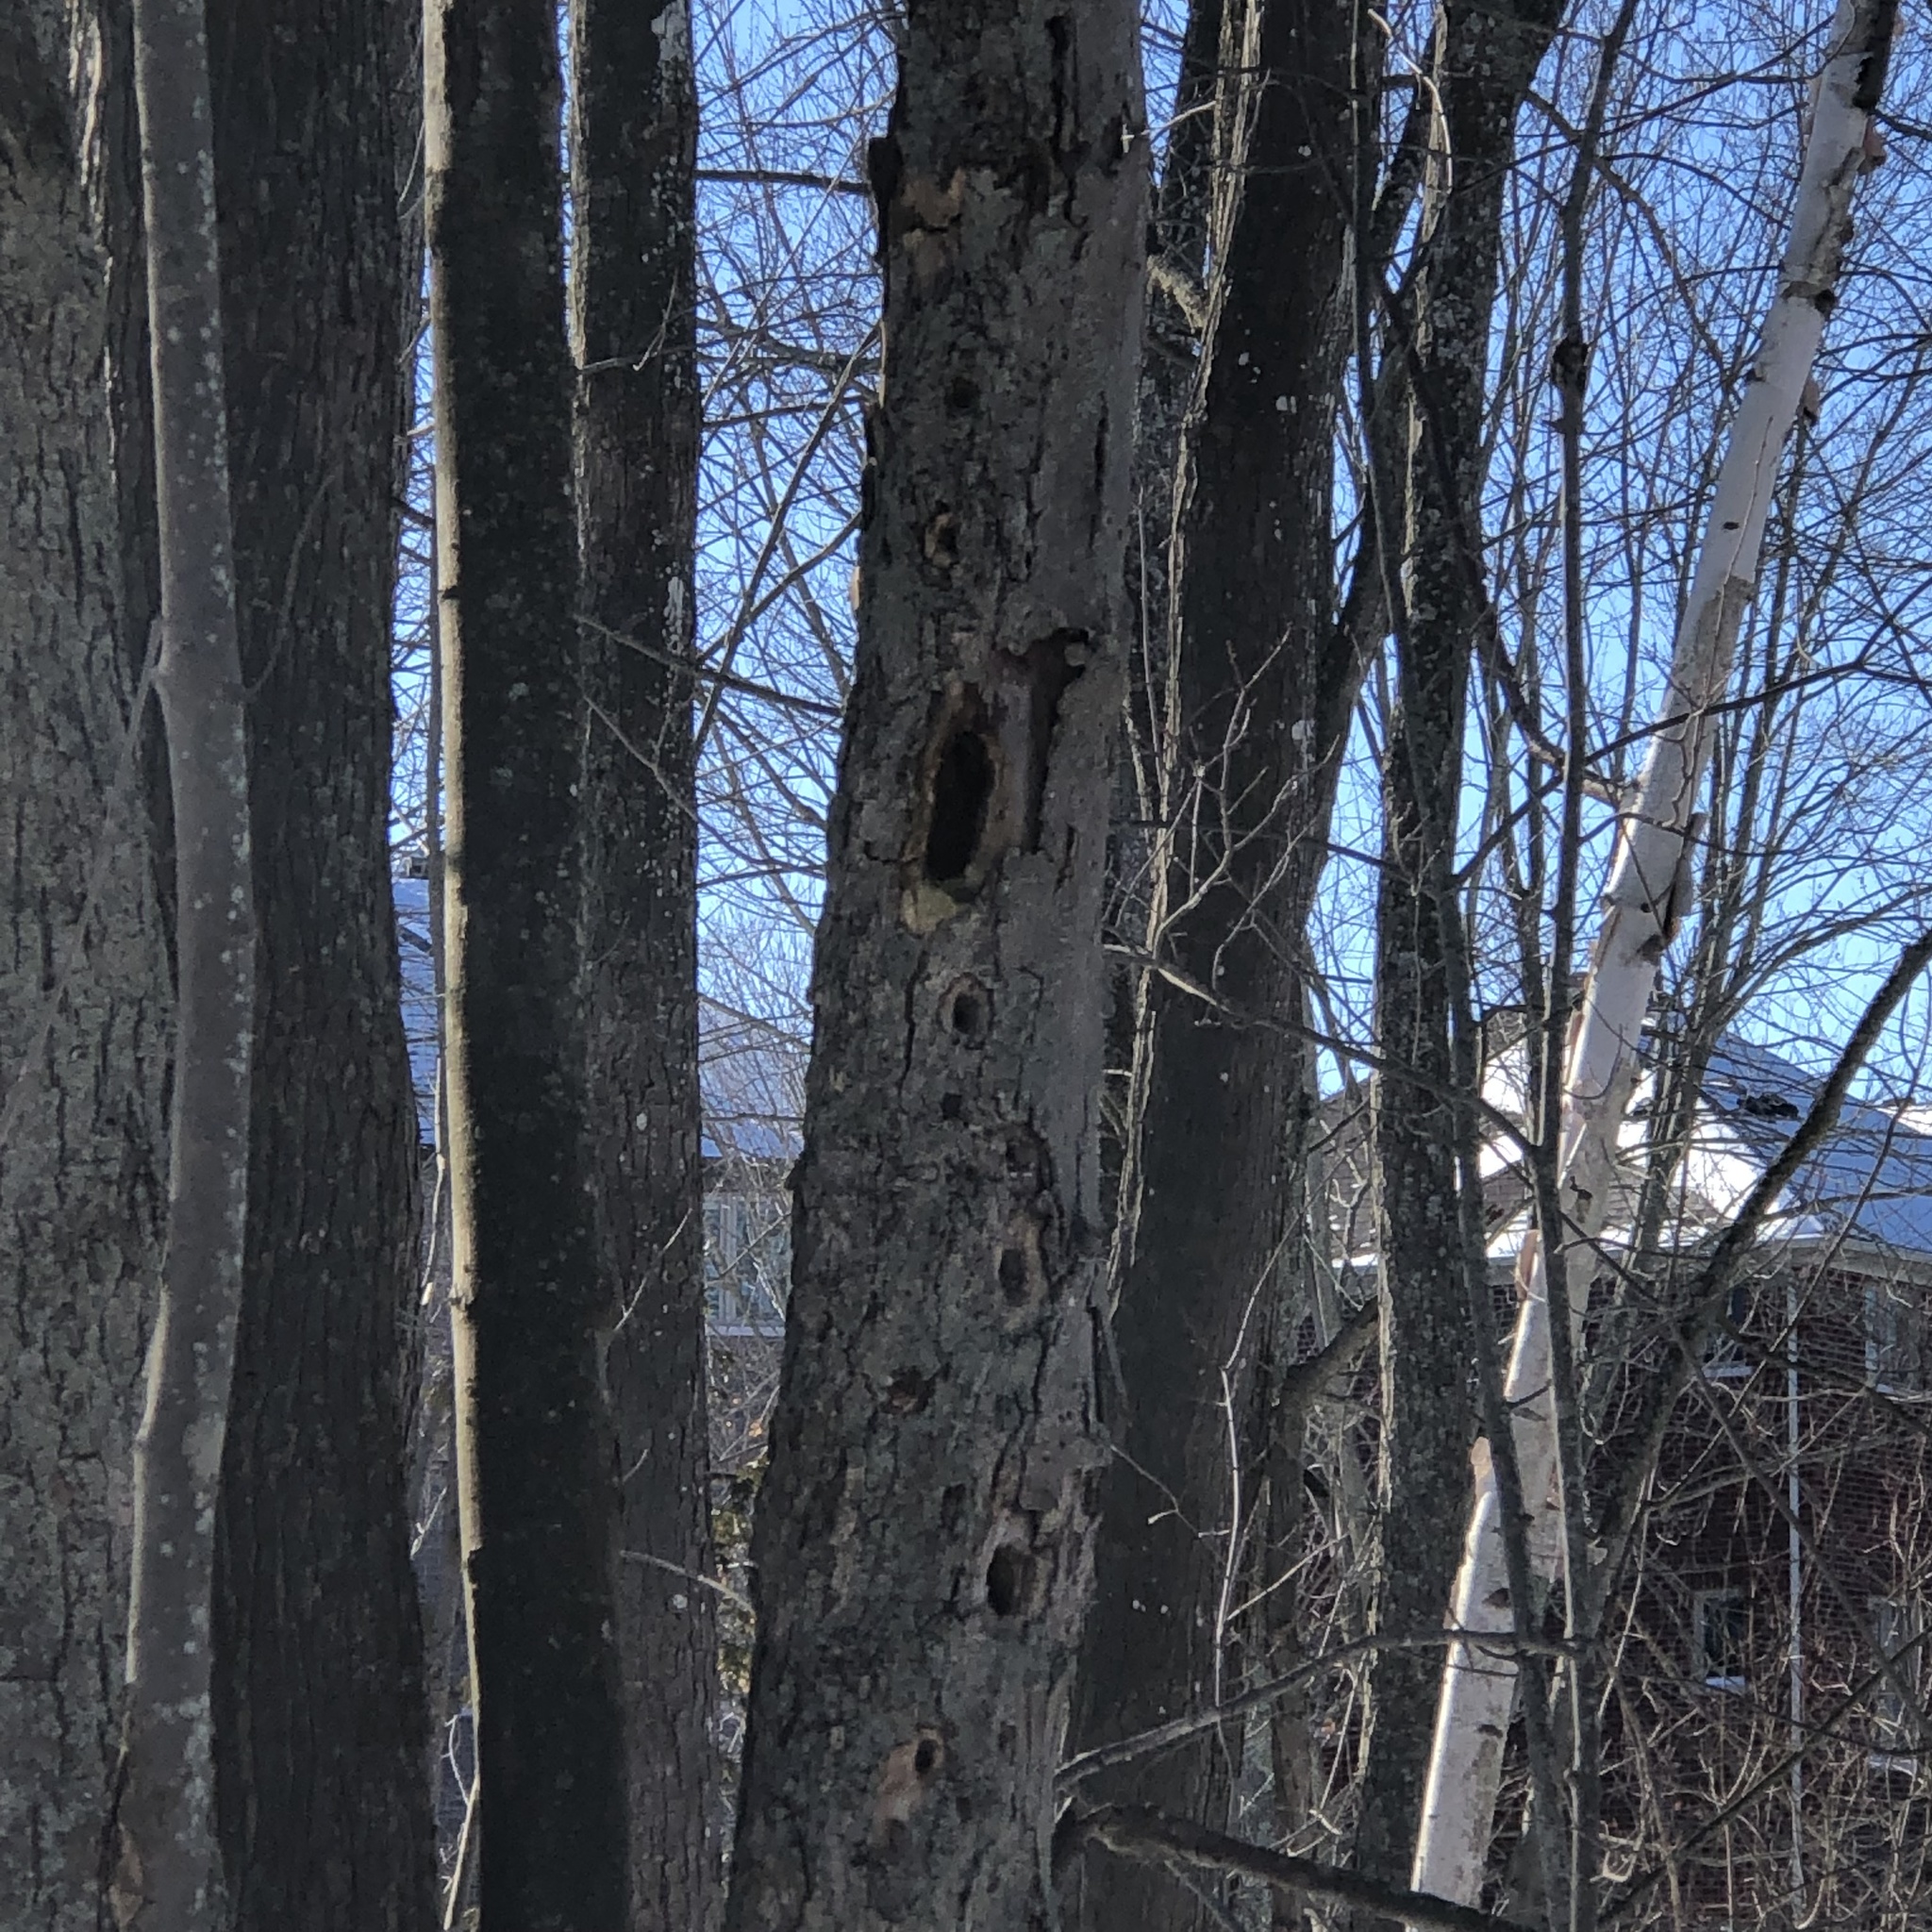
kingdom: Animalia
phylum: Chordata
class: Aves
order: Piciformes
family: Picidae
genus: Dryocopus
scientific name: Dryocopus pileatus
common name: Pileated woodpecker
